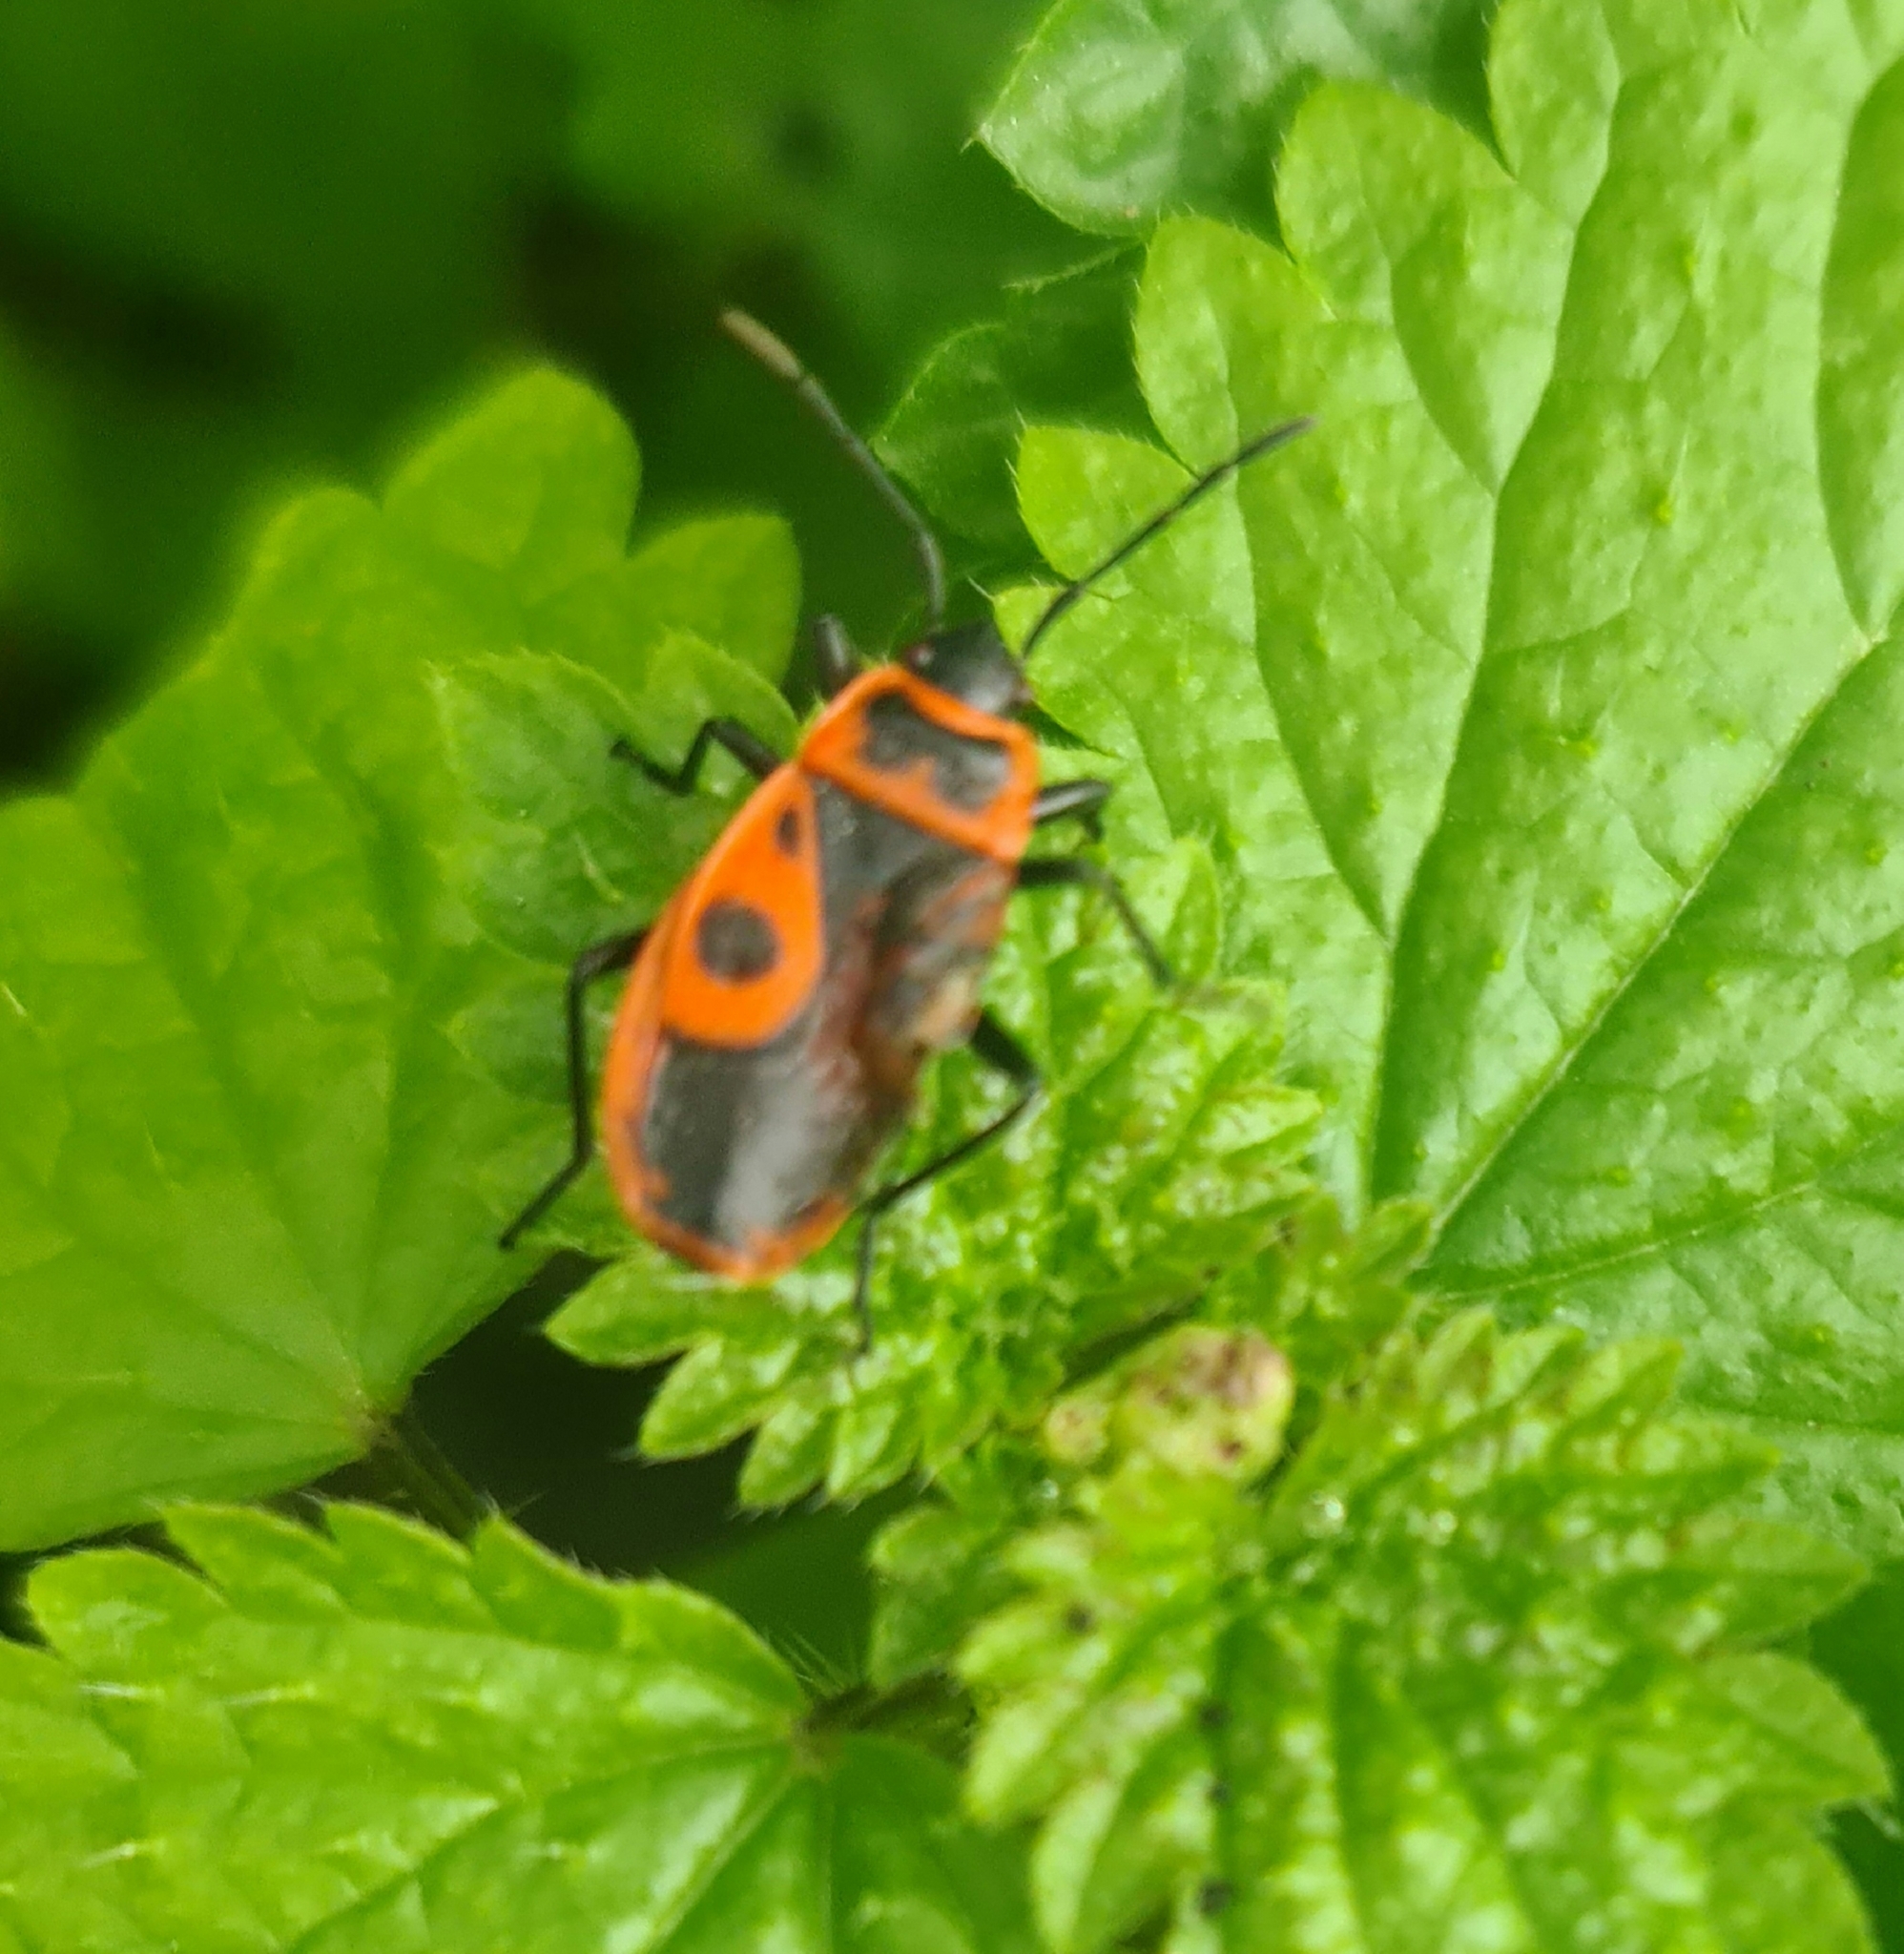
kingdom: Animalia
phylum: Arthropoda
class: Insecta
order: Hemiptera
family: Pyrrhocoridae
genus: Pyrrhocoris
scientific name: Pyrrhocoris apterus
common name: Firebug
